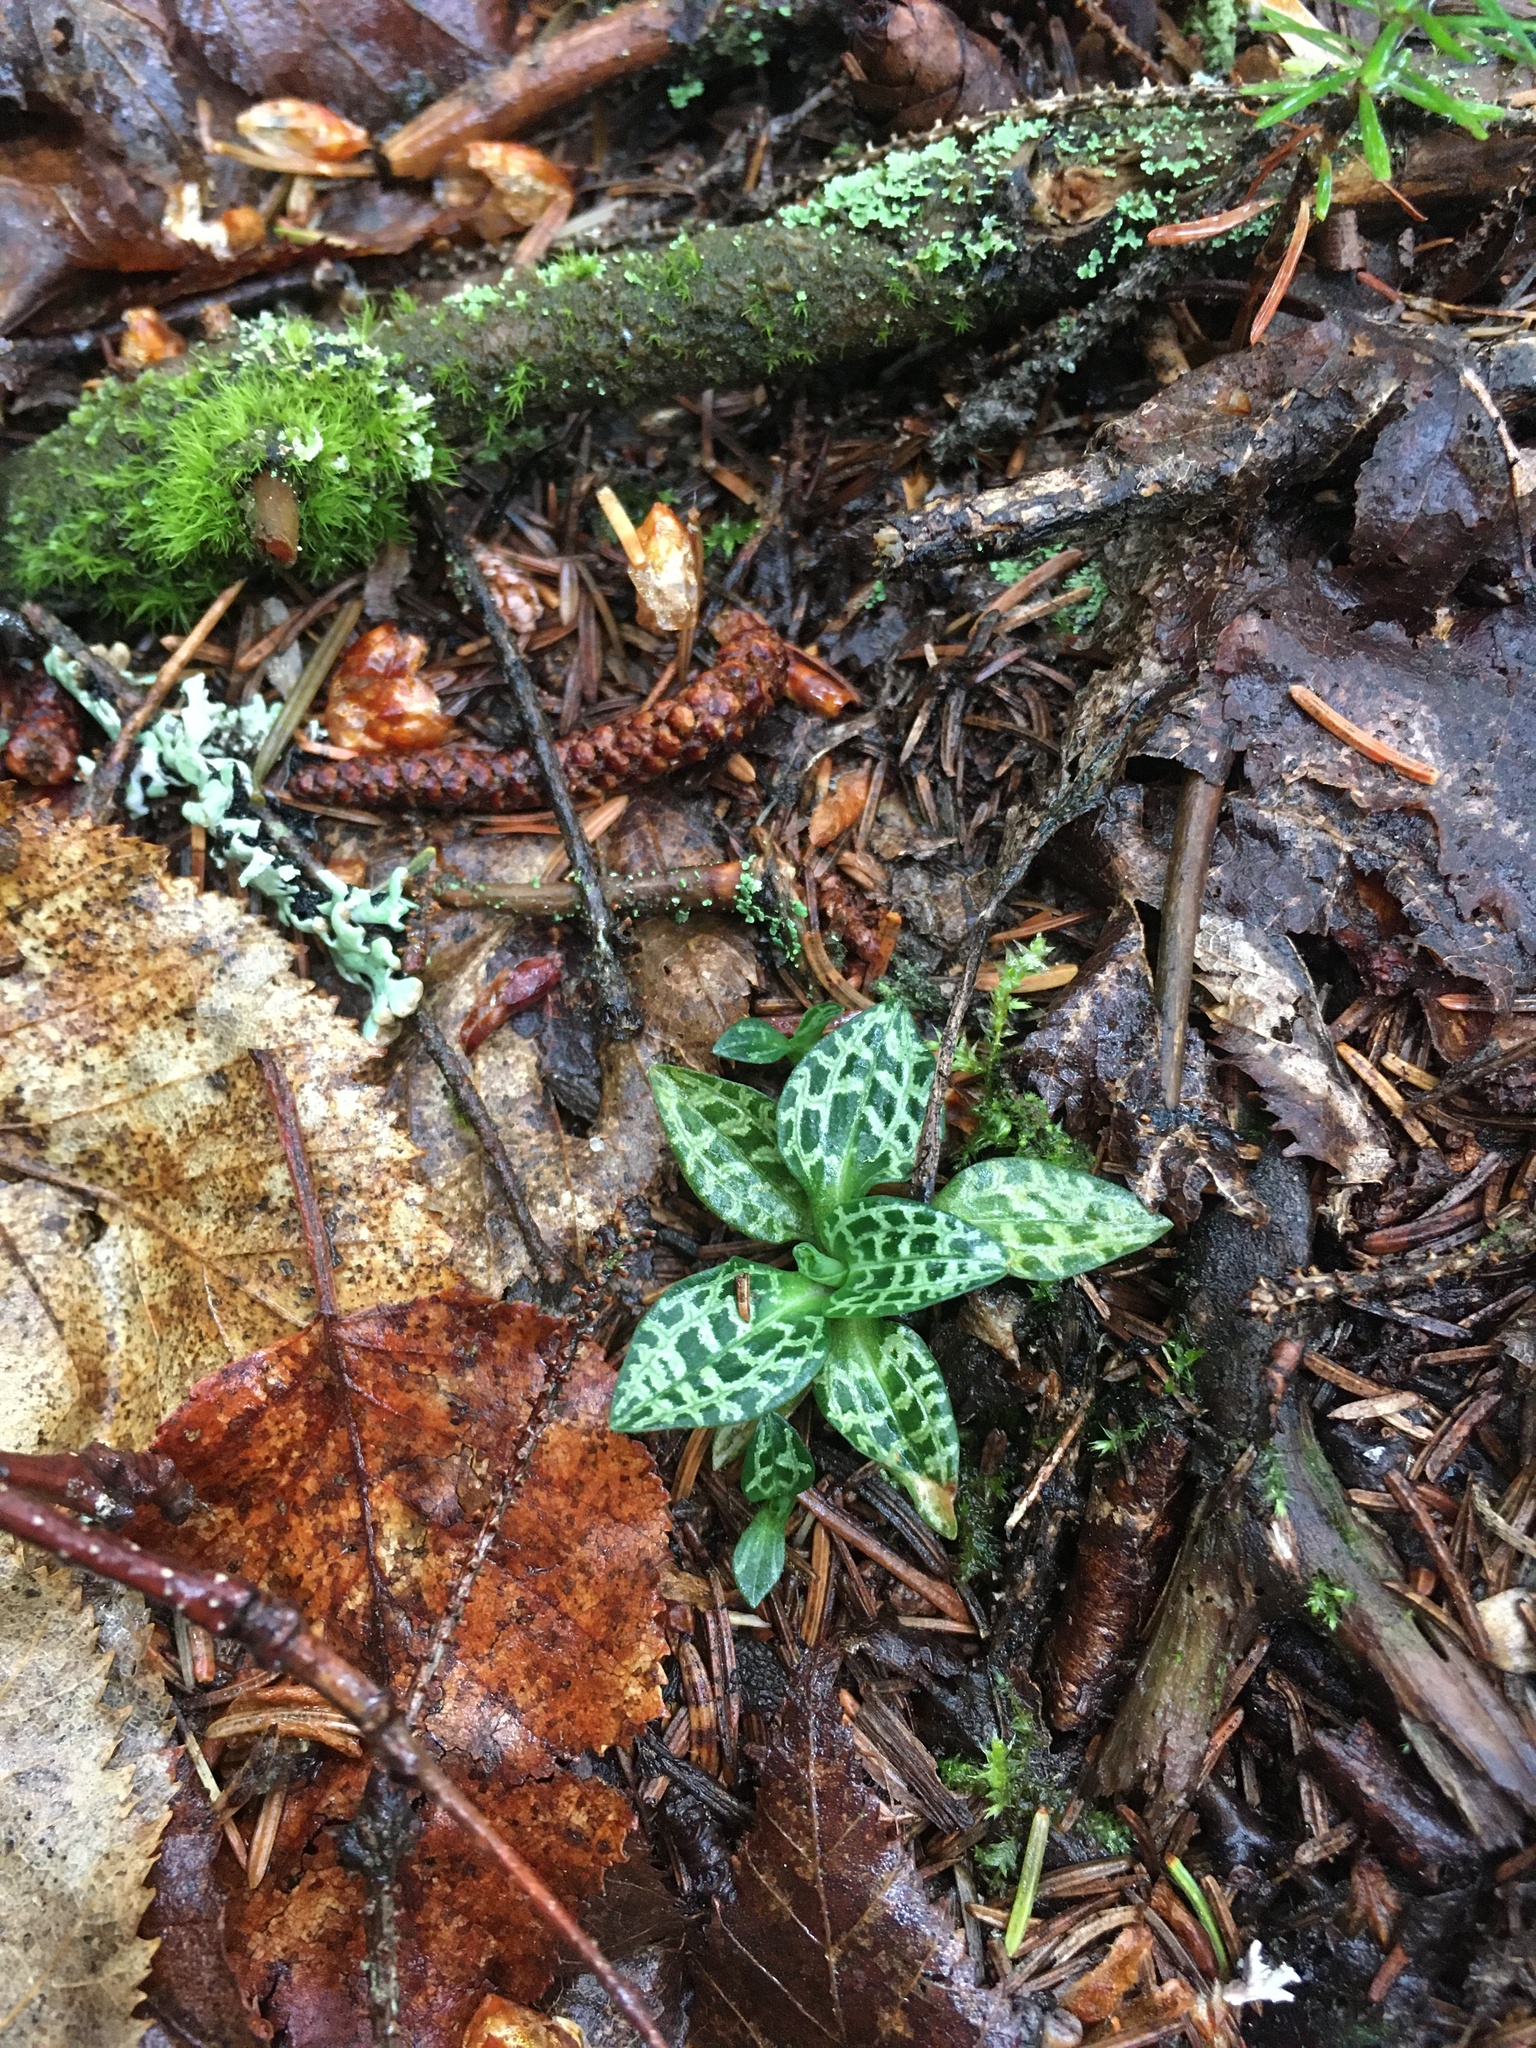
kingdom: Plantae
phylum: Tracheophyta
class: Liliopsida
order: Asparagales
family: Orchidaceae
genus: Goodyera
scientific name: Goodyera repens
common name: Creeping lady's-tresses
